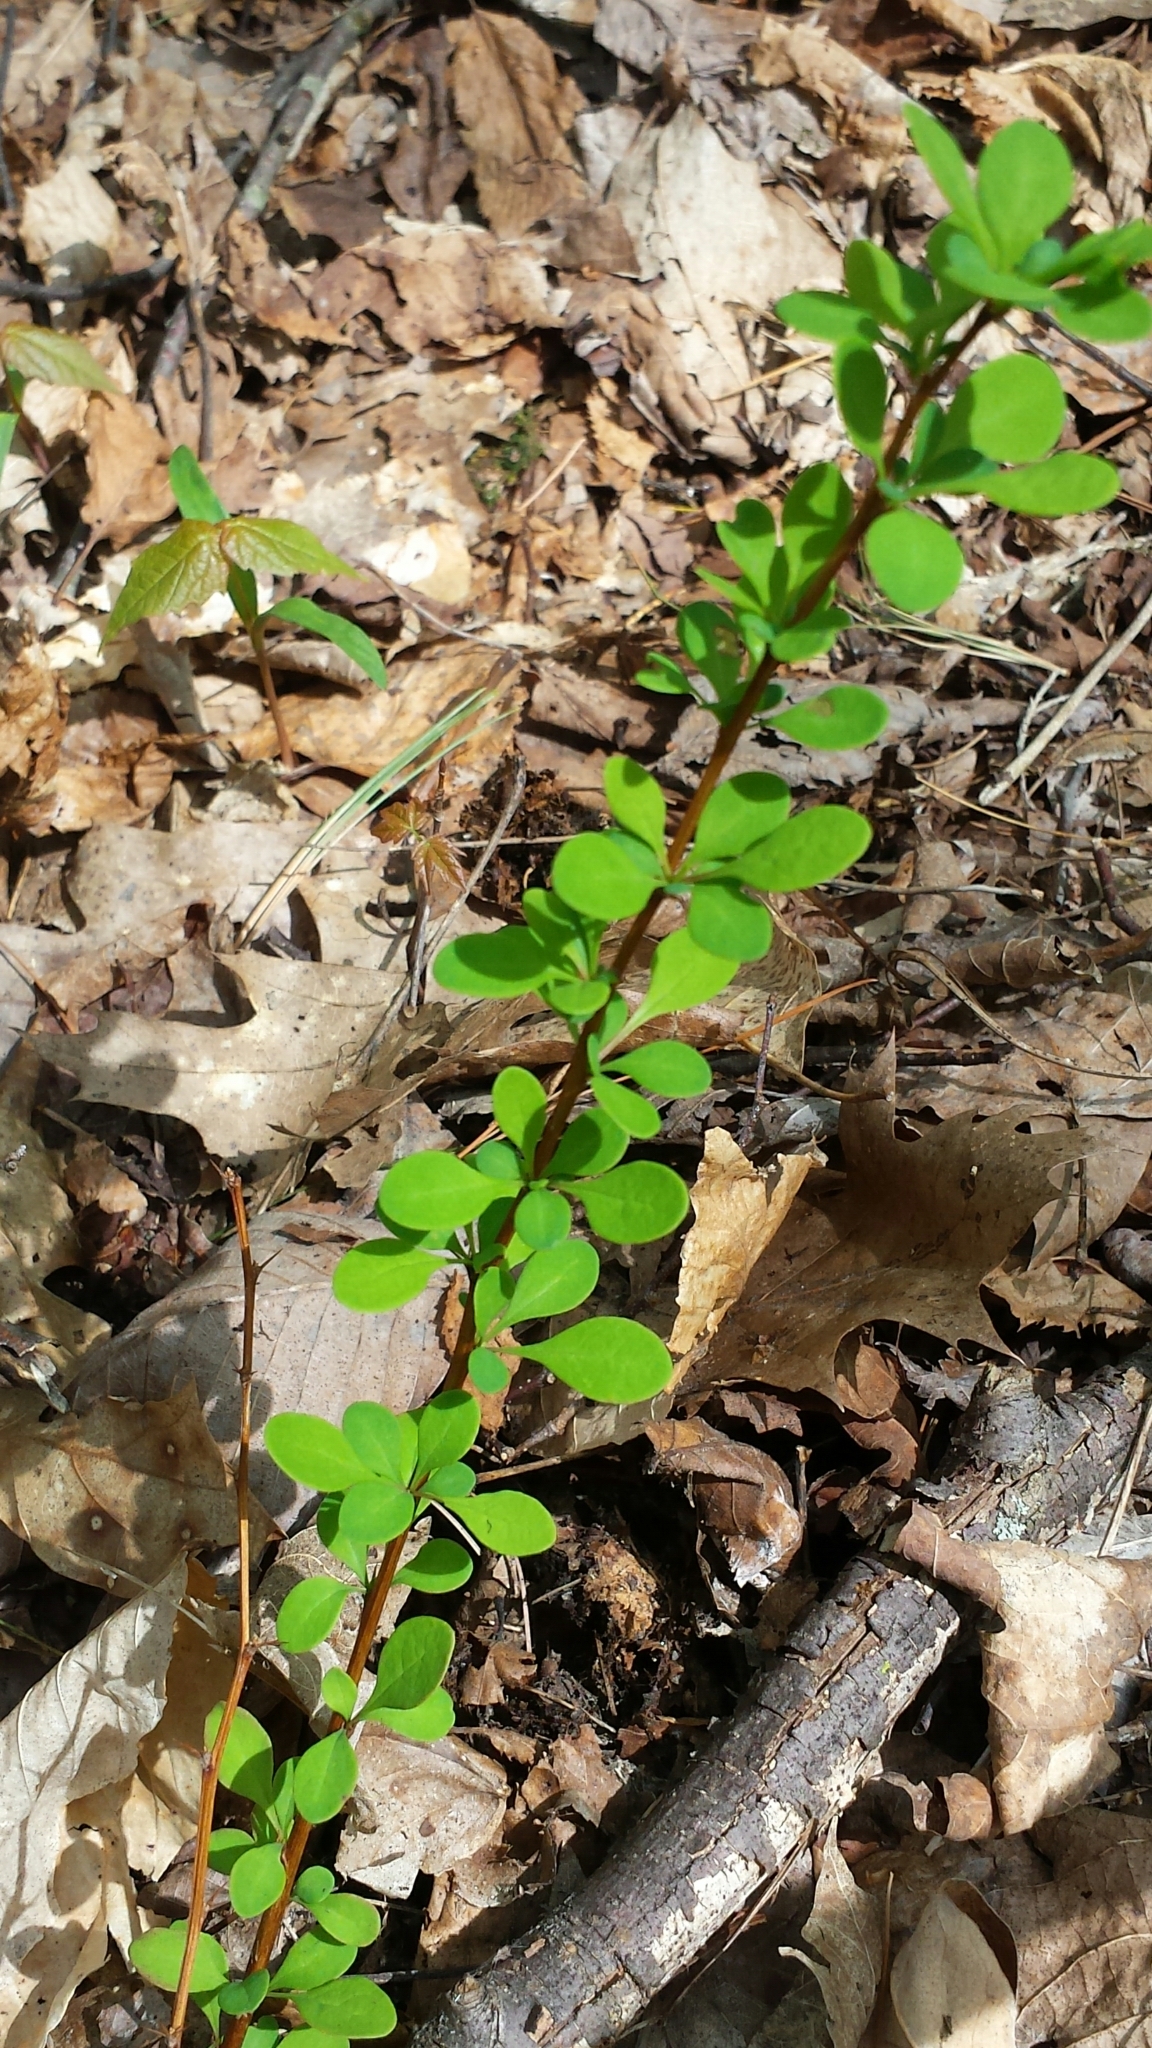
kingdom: Plantae
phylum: Tracheophyta
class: Magnoliopsida
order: Ranunculales
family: Berberidaceae
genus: Berberis
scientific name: Berberis thunbergii
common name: Japanese barberry
